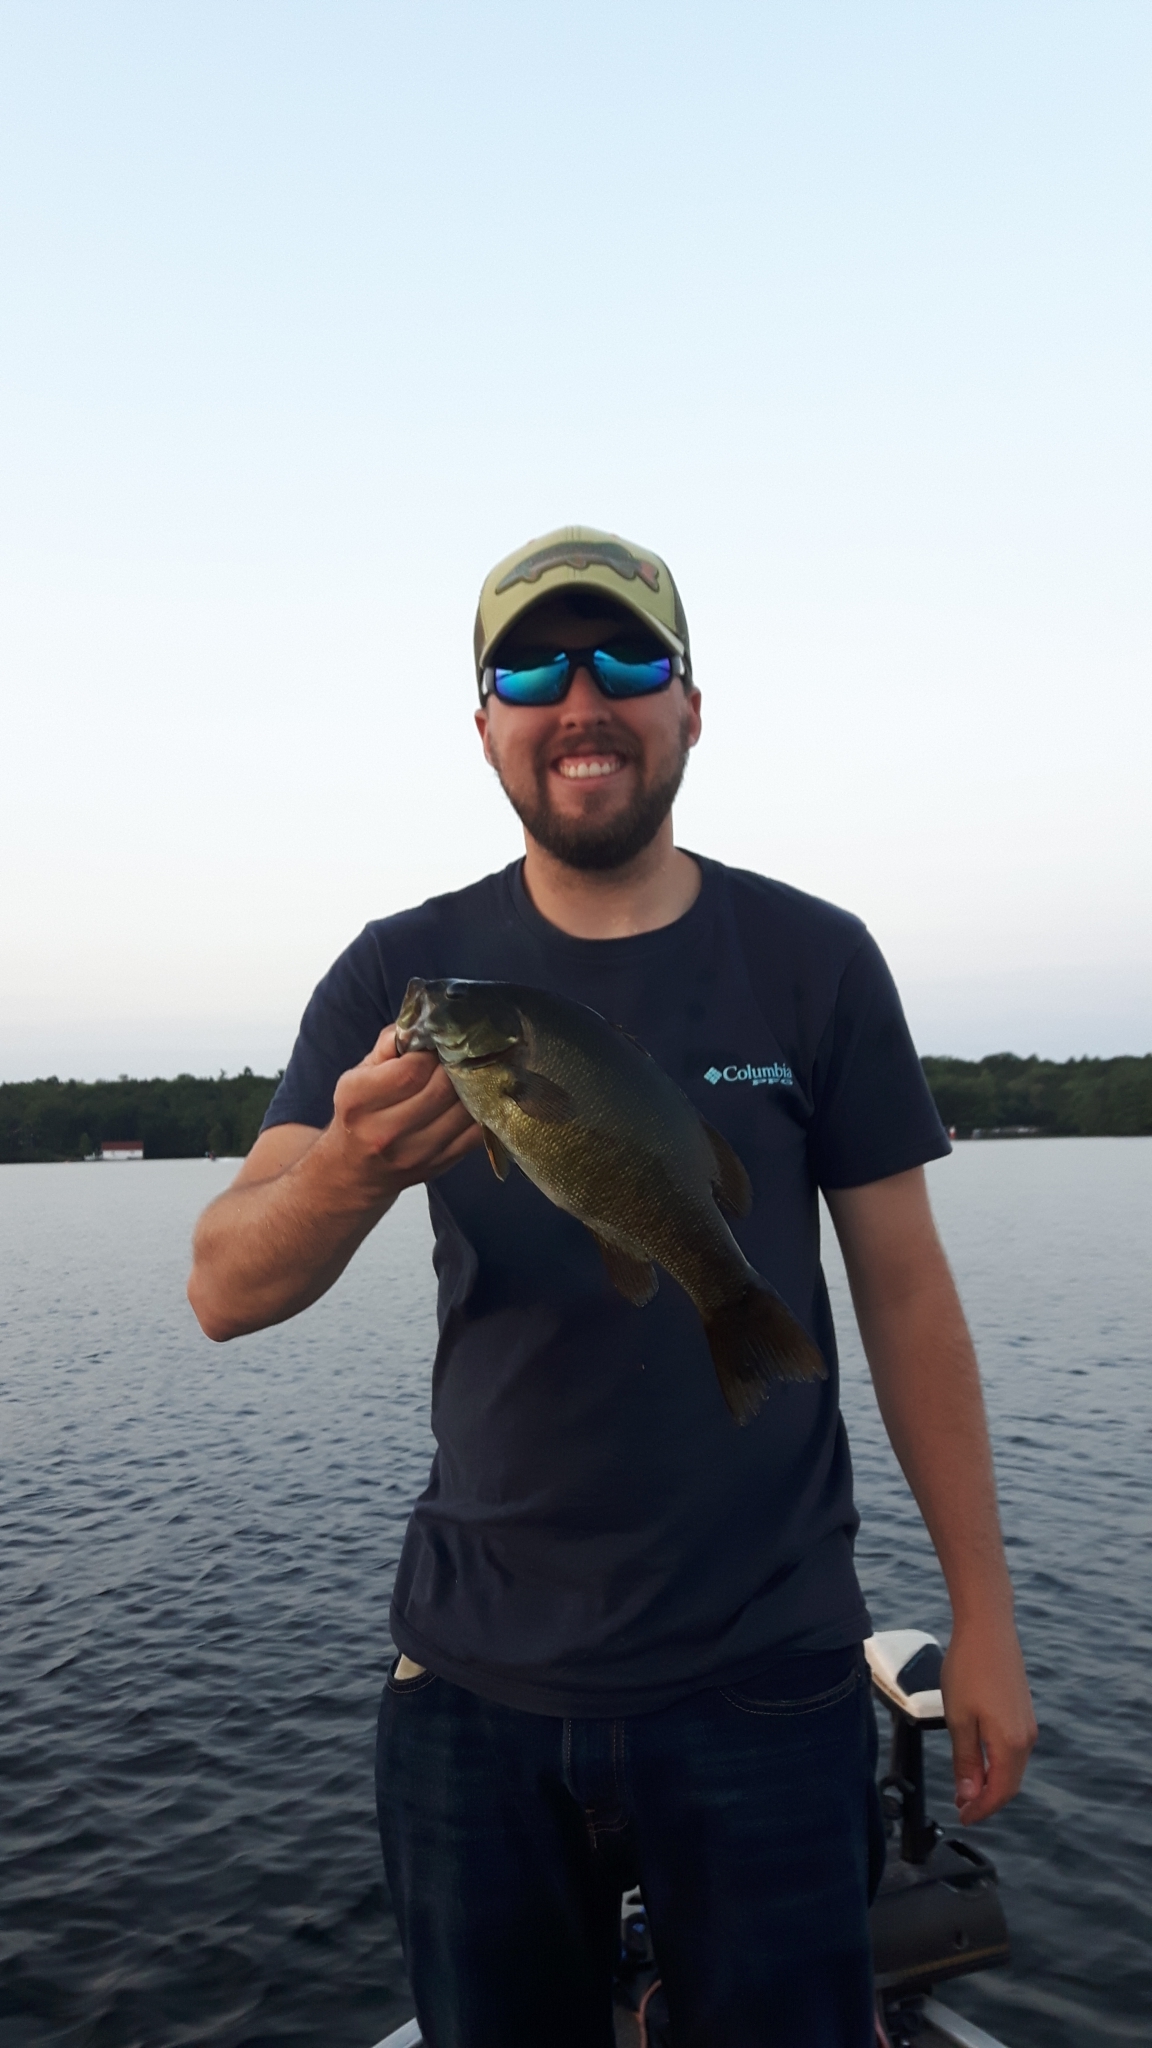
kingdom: Animalia
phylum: Chordata
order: Perciformes
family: Centrarchidae
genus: Micropterus
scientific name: Micropterus dolomieu
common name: Smallmouth bass
